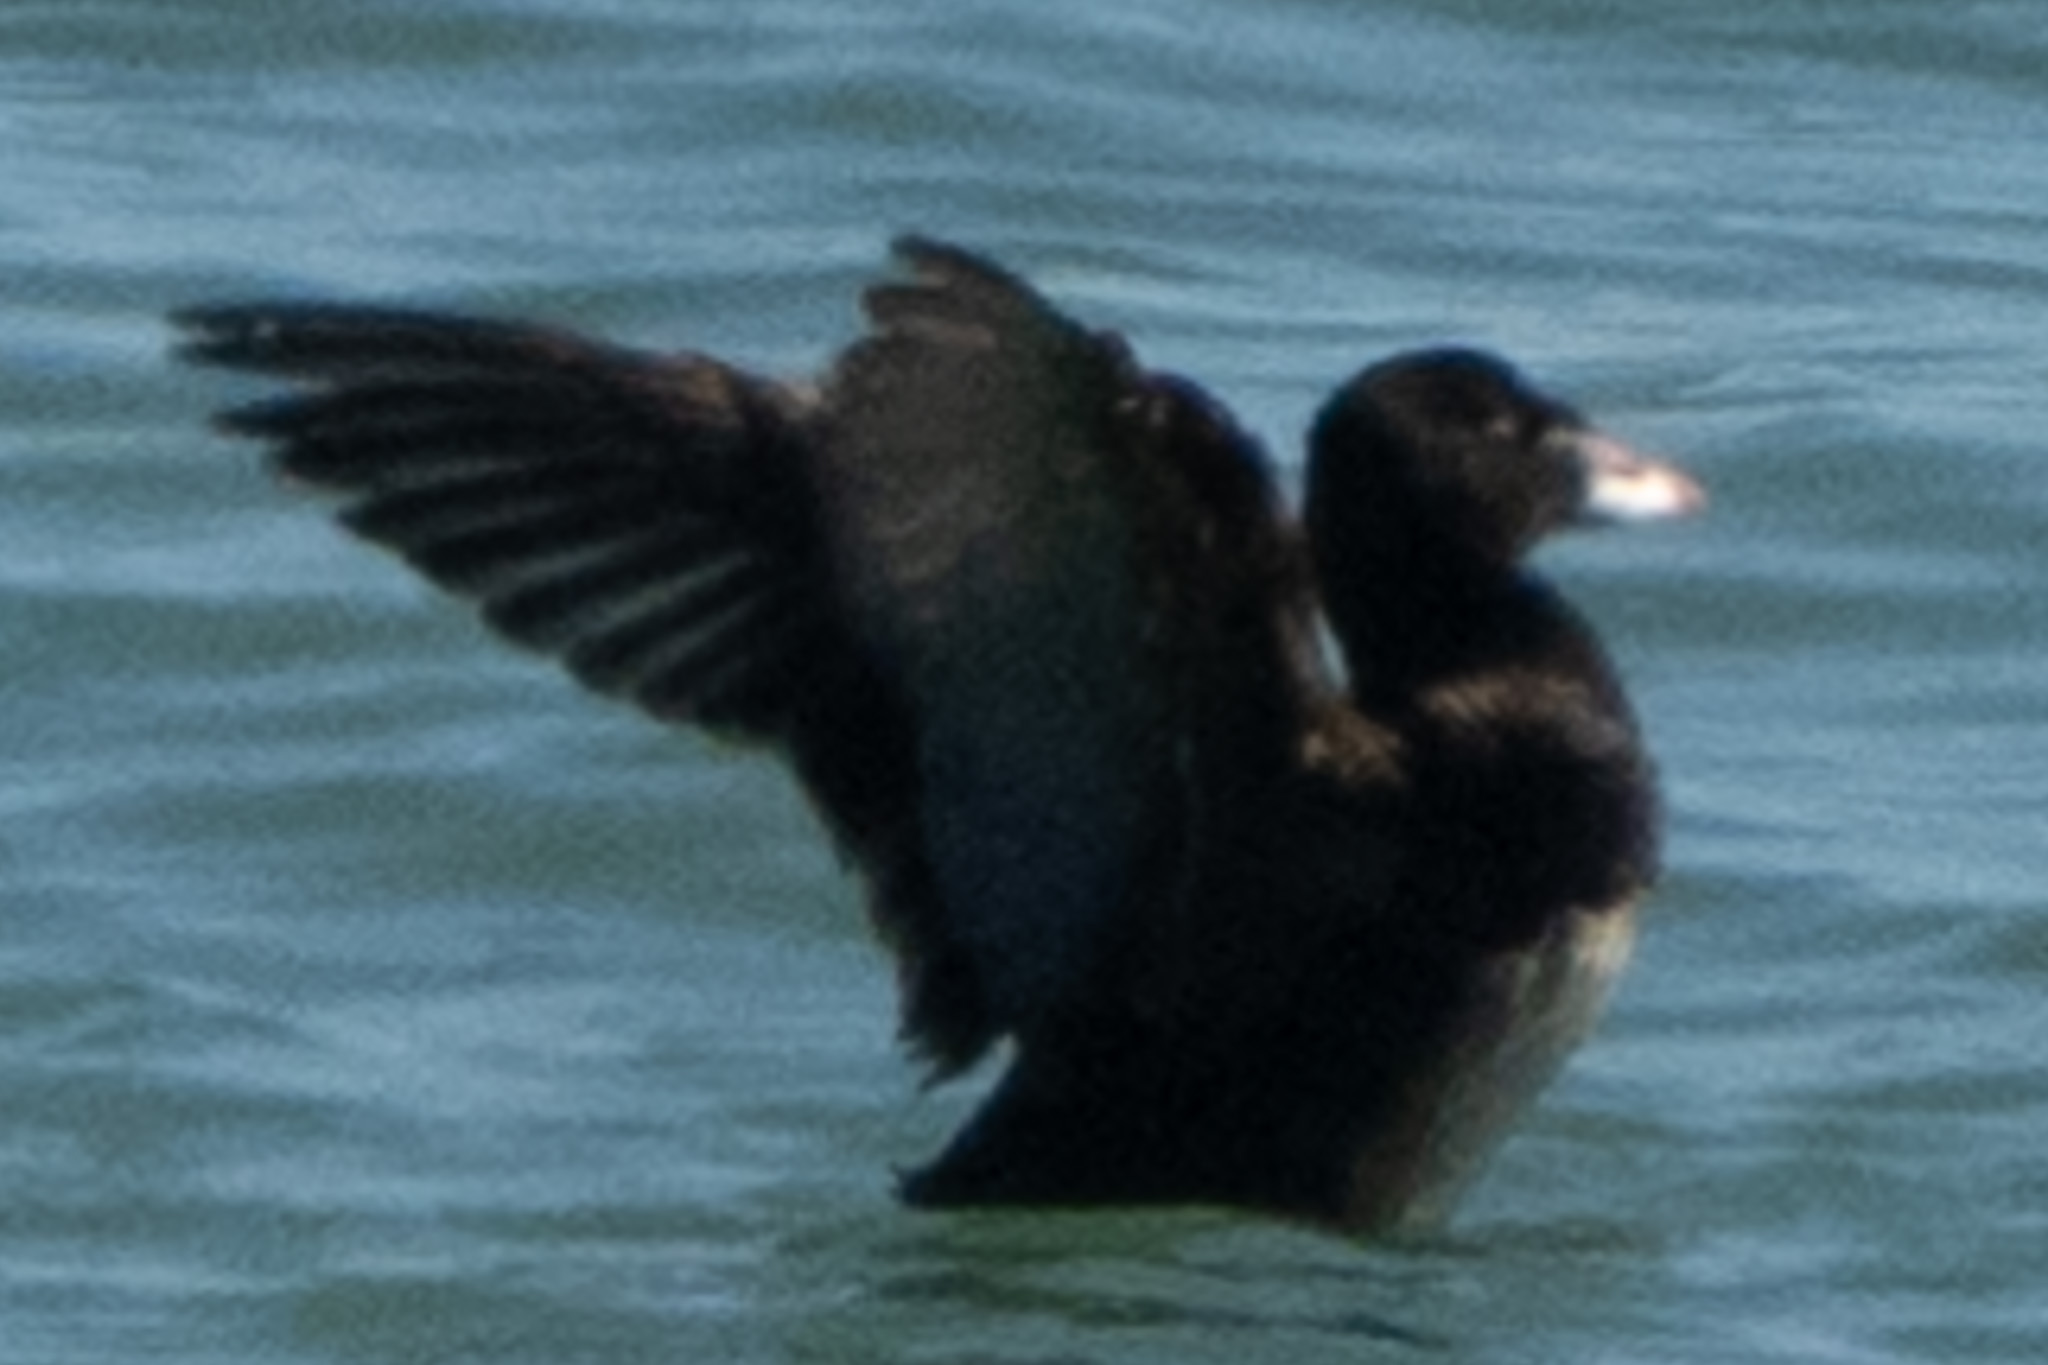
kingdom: Animalia
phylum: Chordata
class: Aves
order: Anseriformes
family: Anatidae
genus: Melanitta
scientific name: Melanitta perspicillata
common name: Surf scoter
